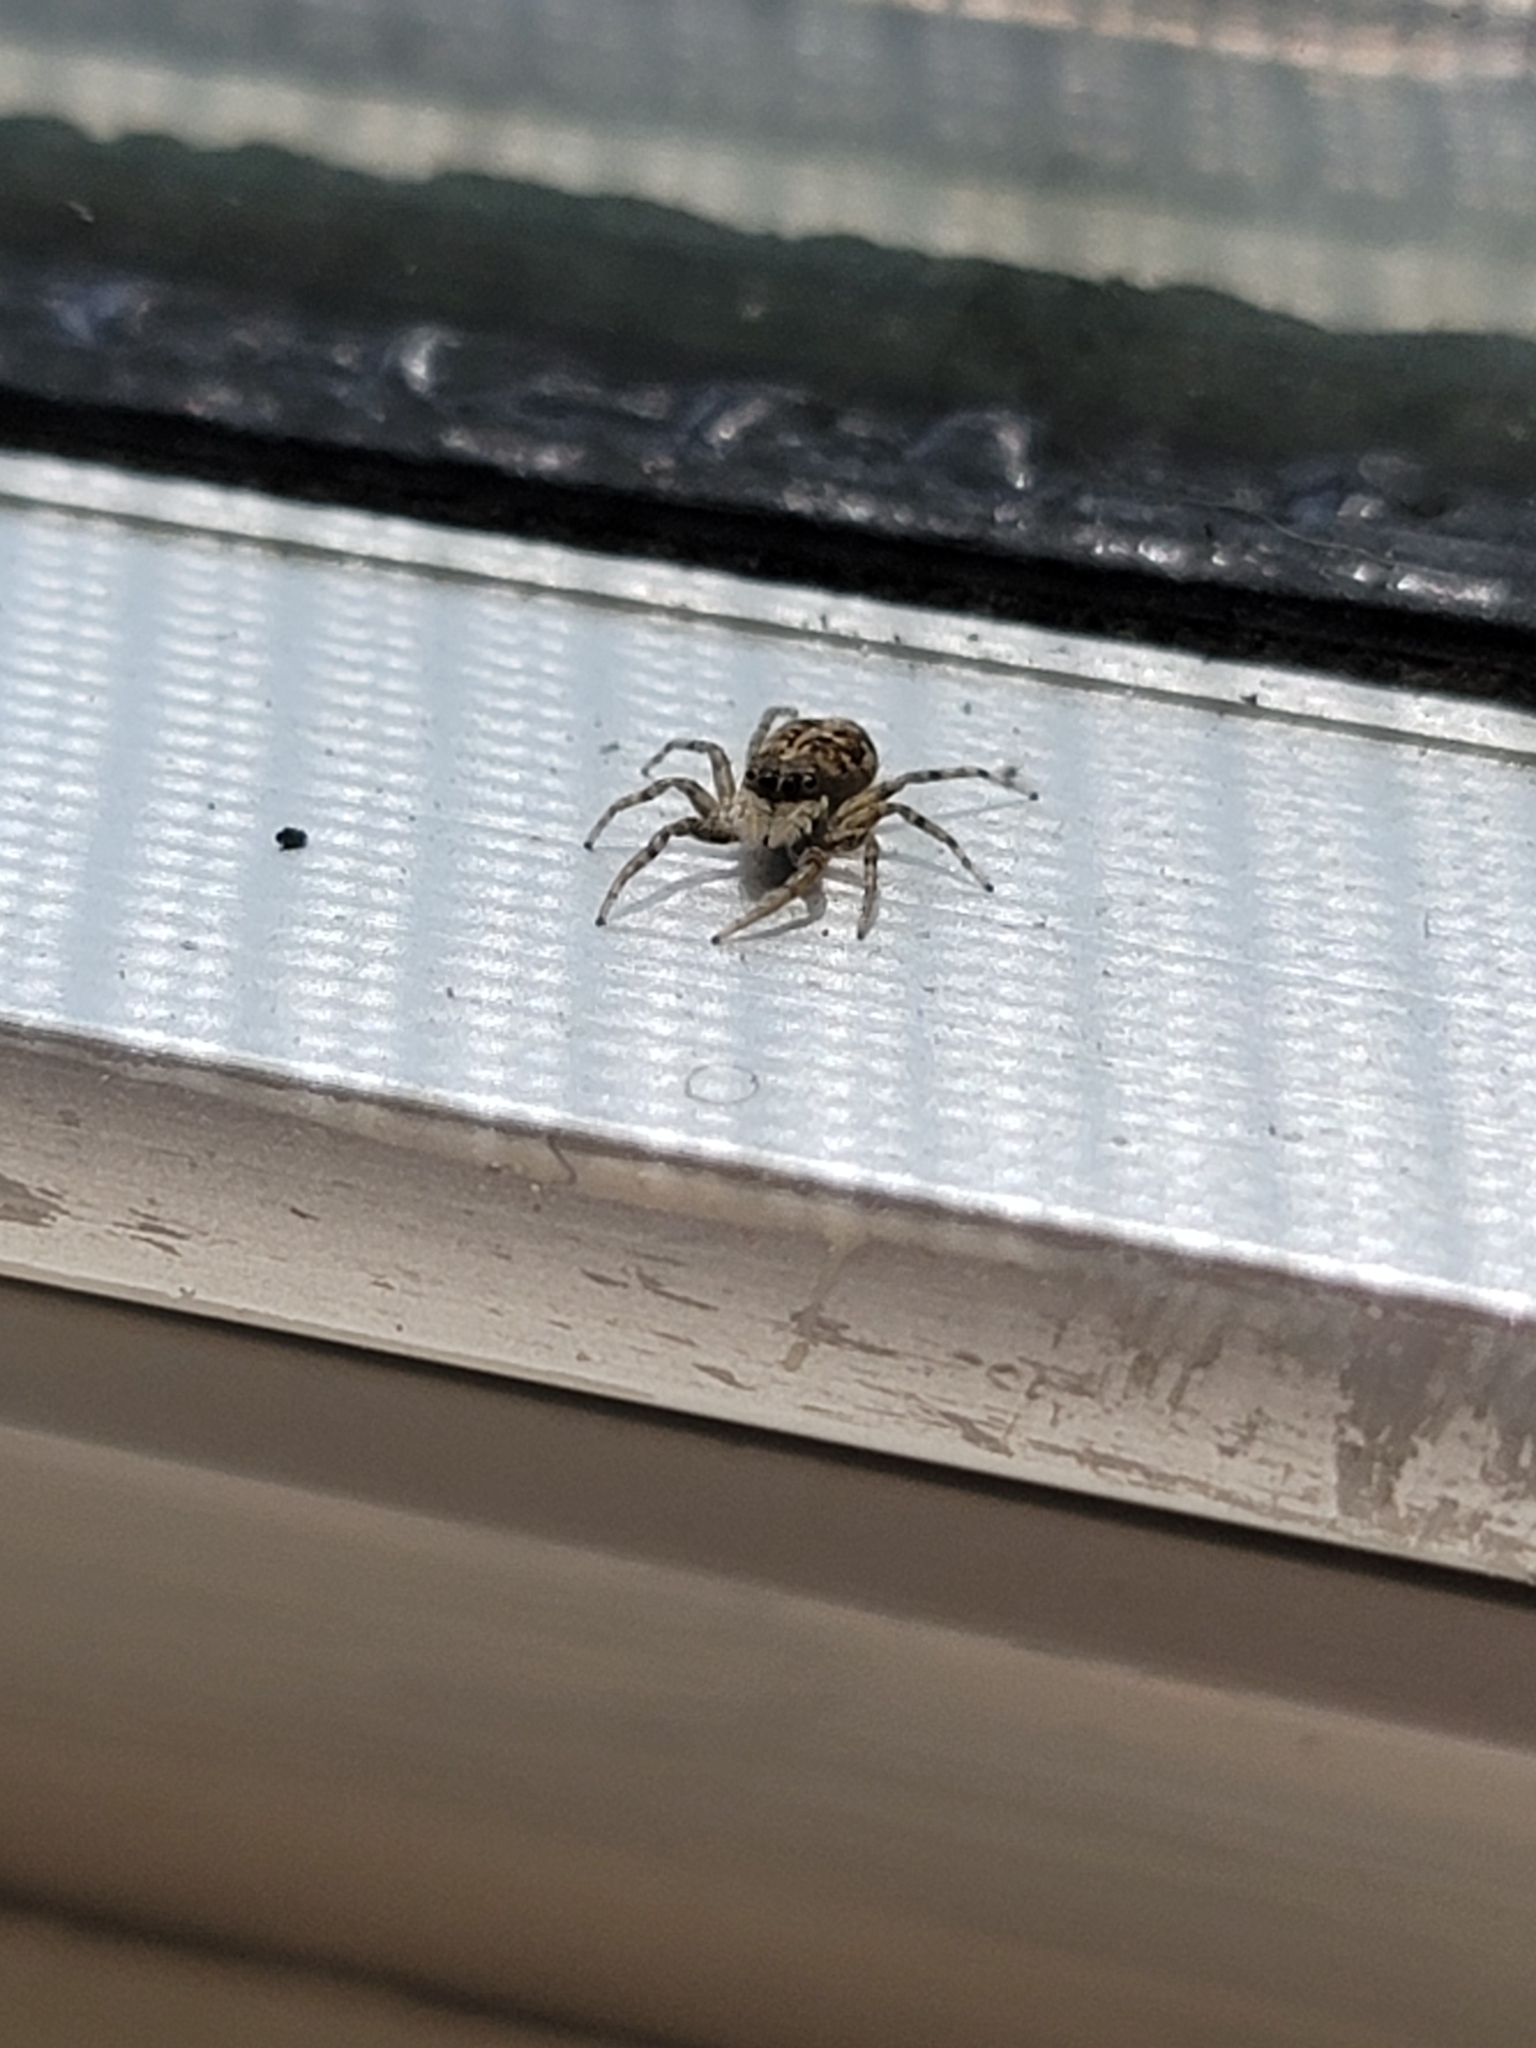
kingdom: Animalia
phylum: Arthropoda
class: Arachnida
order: Araneae
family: Salticidae
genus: Menemerus
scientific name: Menemerus semilimbatus
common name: Jumping spider
